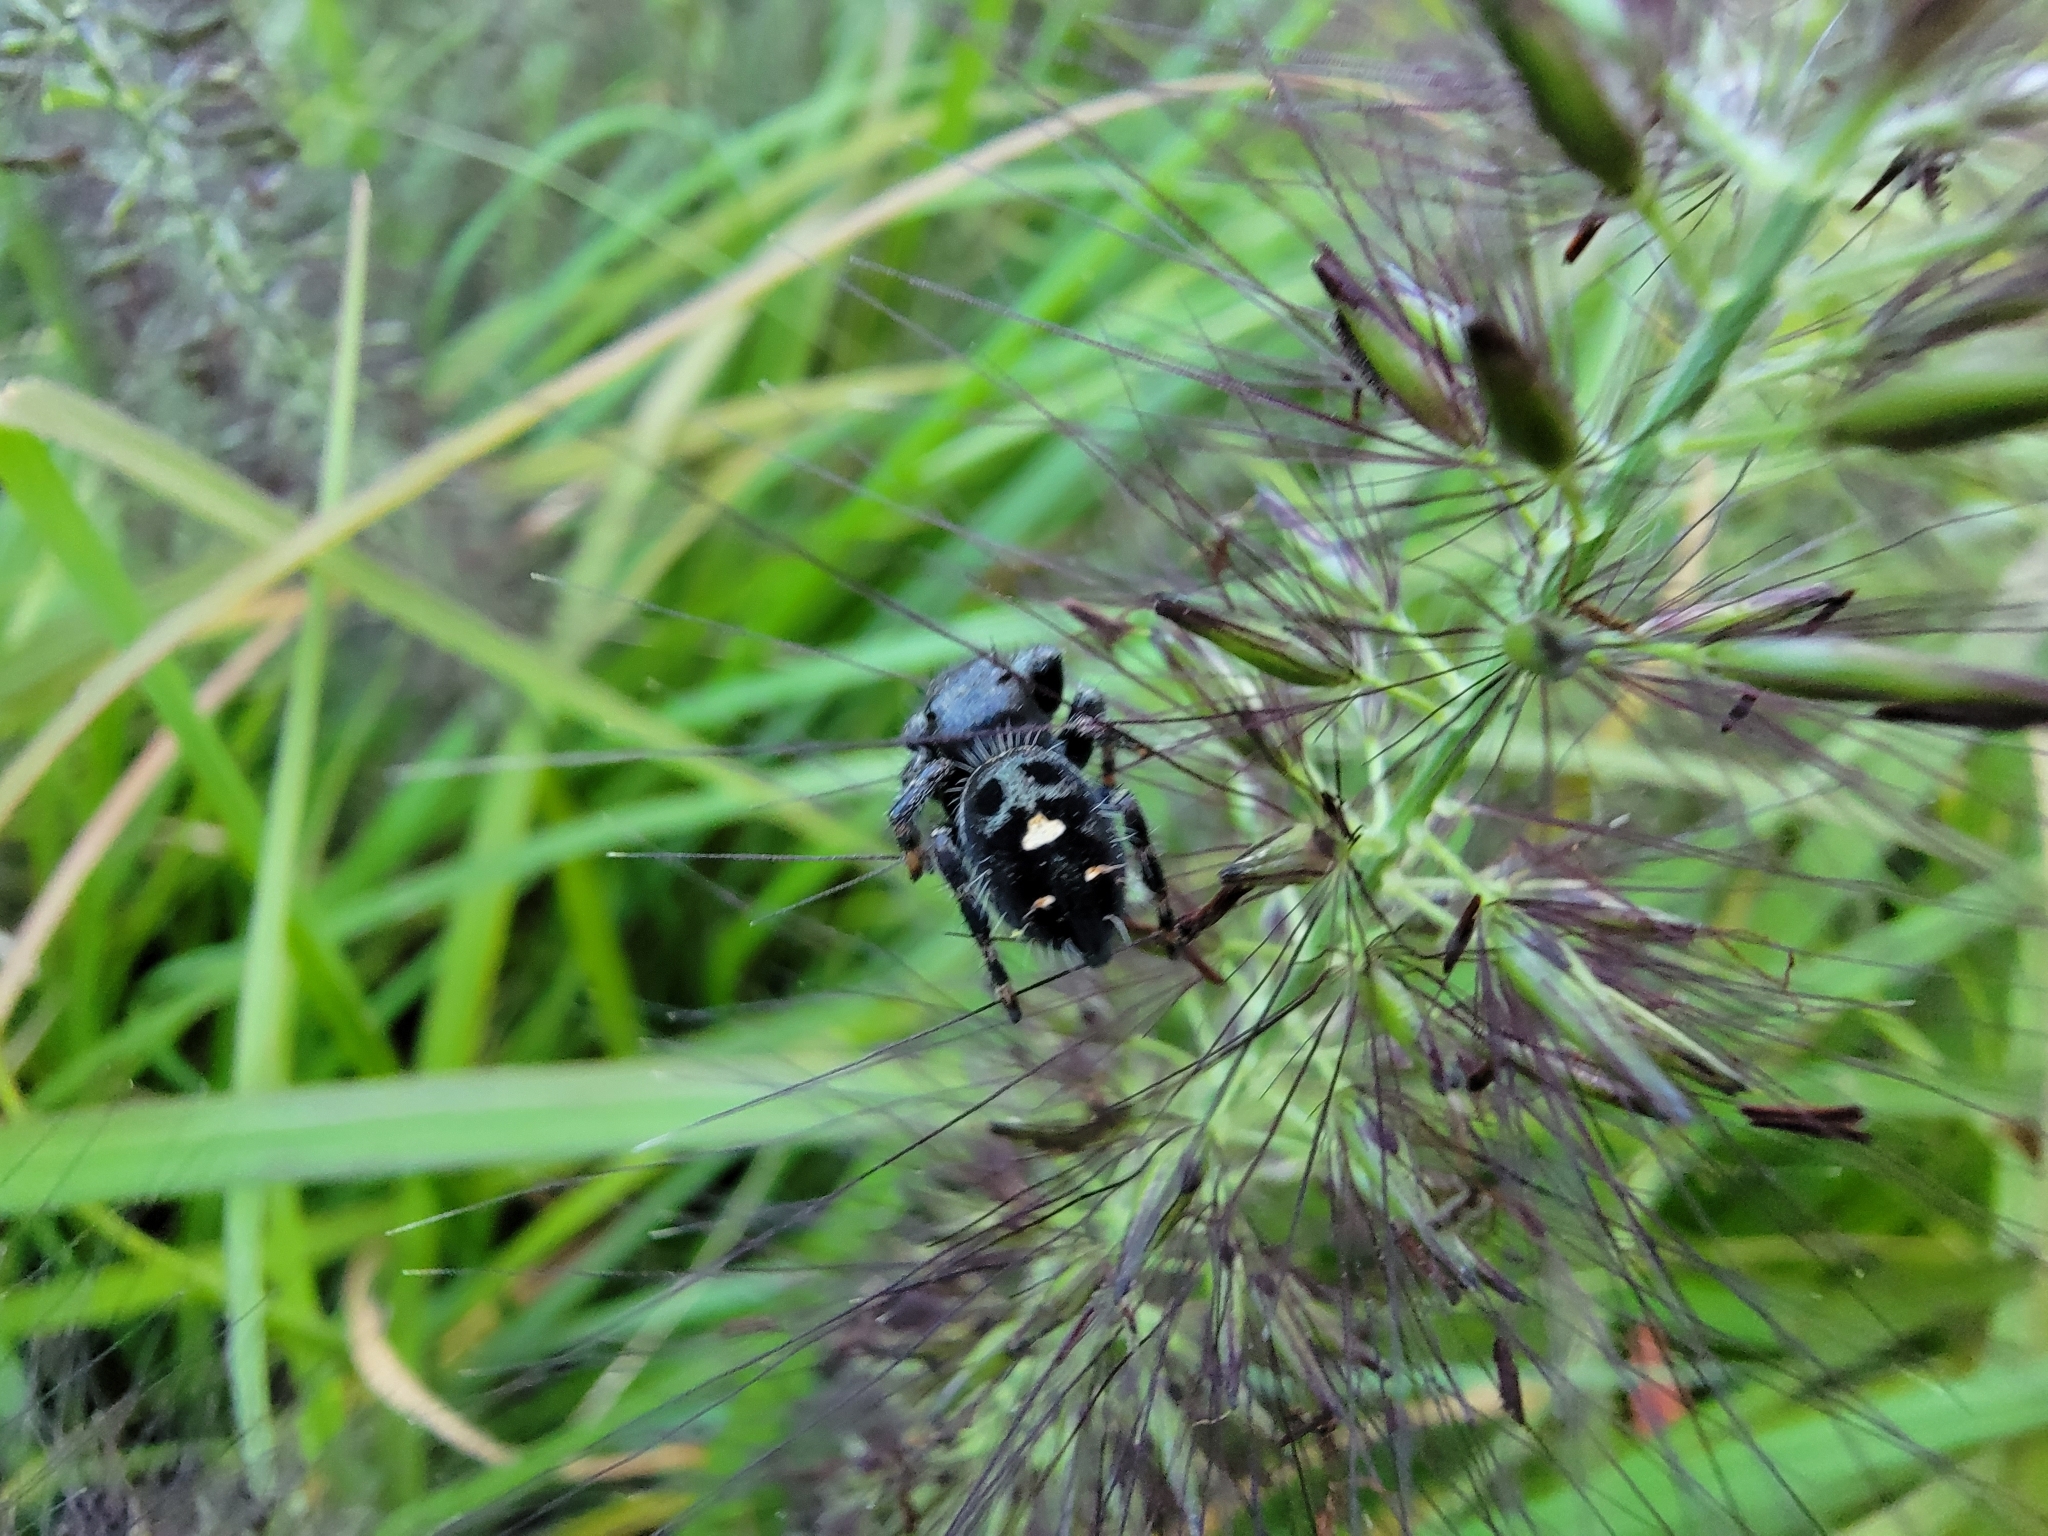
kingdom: Animalia
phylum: Arthropoda
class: Arachnida
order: Araneae
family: Salticidae
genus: Phidippus
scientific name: Phidippus audax
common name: Bold jumper
